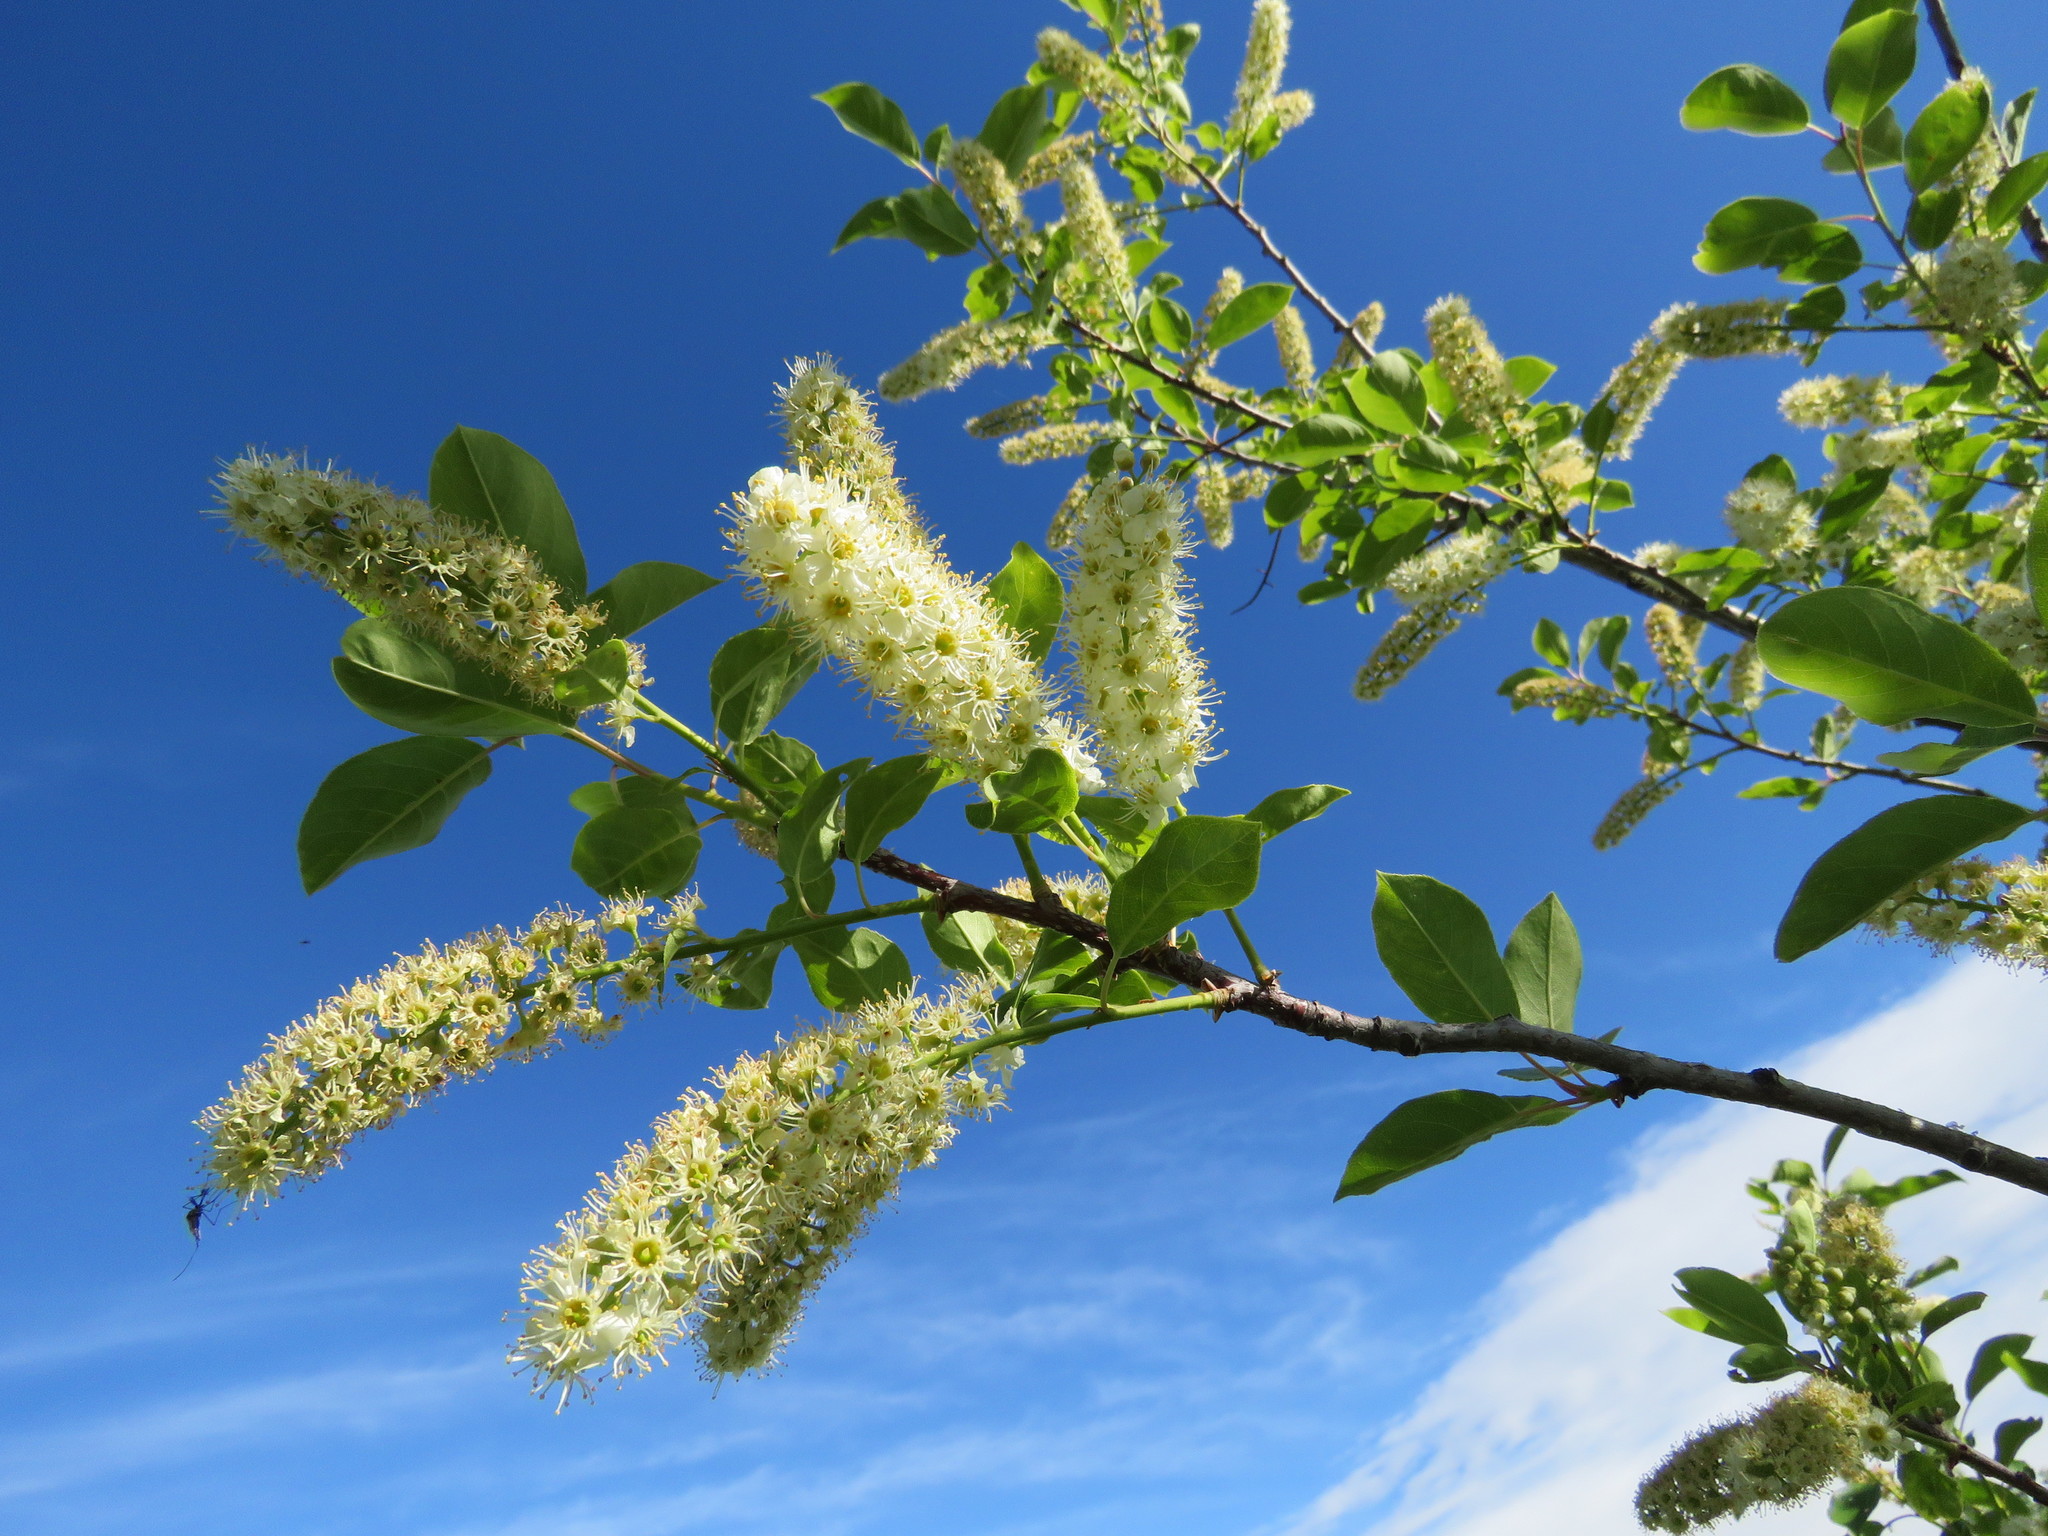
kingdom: Plantae
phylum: Tracheophyta
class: Magnoliopsida
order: Rosales
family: Rosaceae
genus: Prunus
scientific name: Prunus virginiana
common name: Chokecherry
